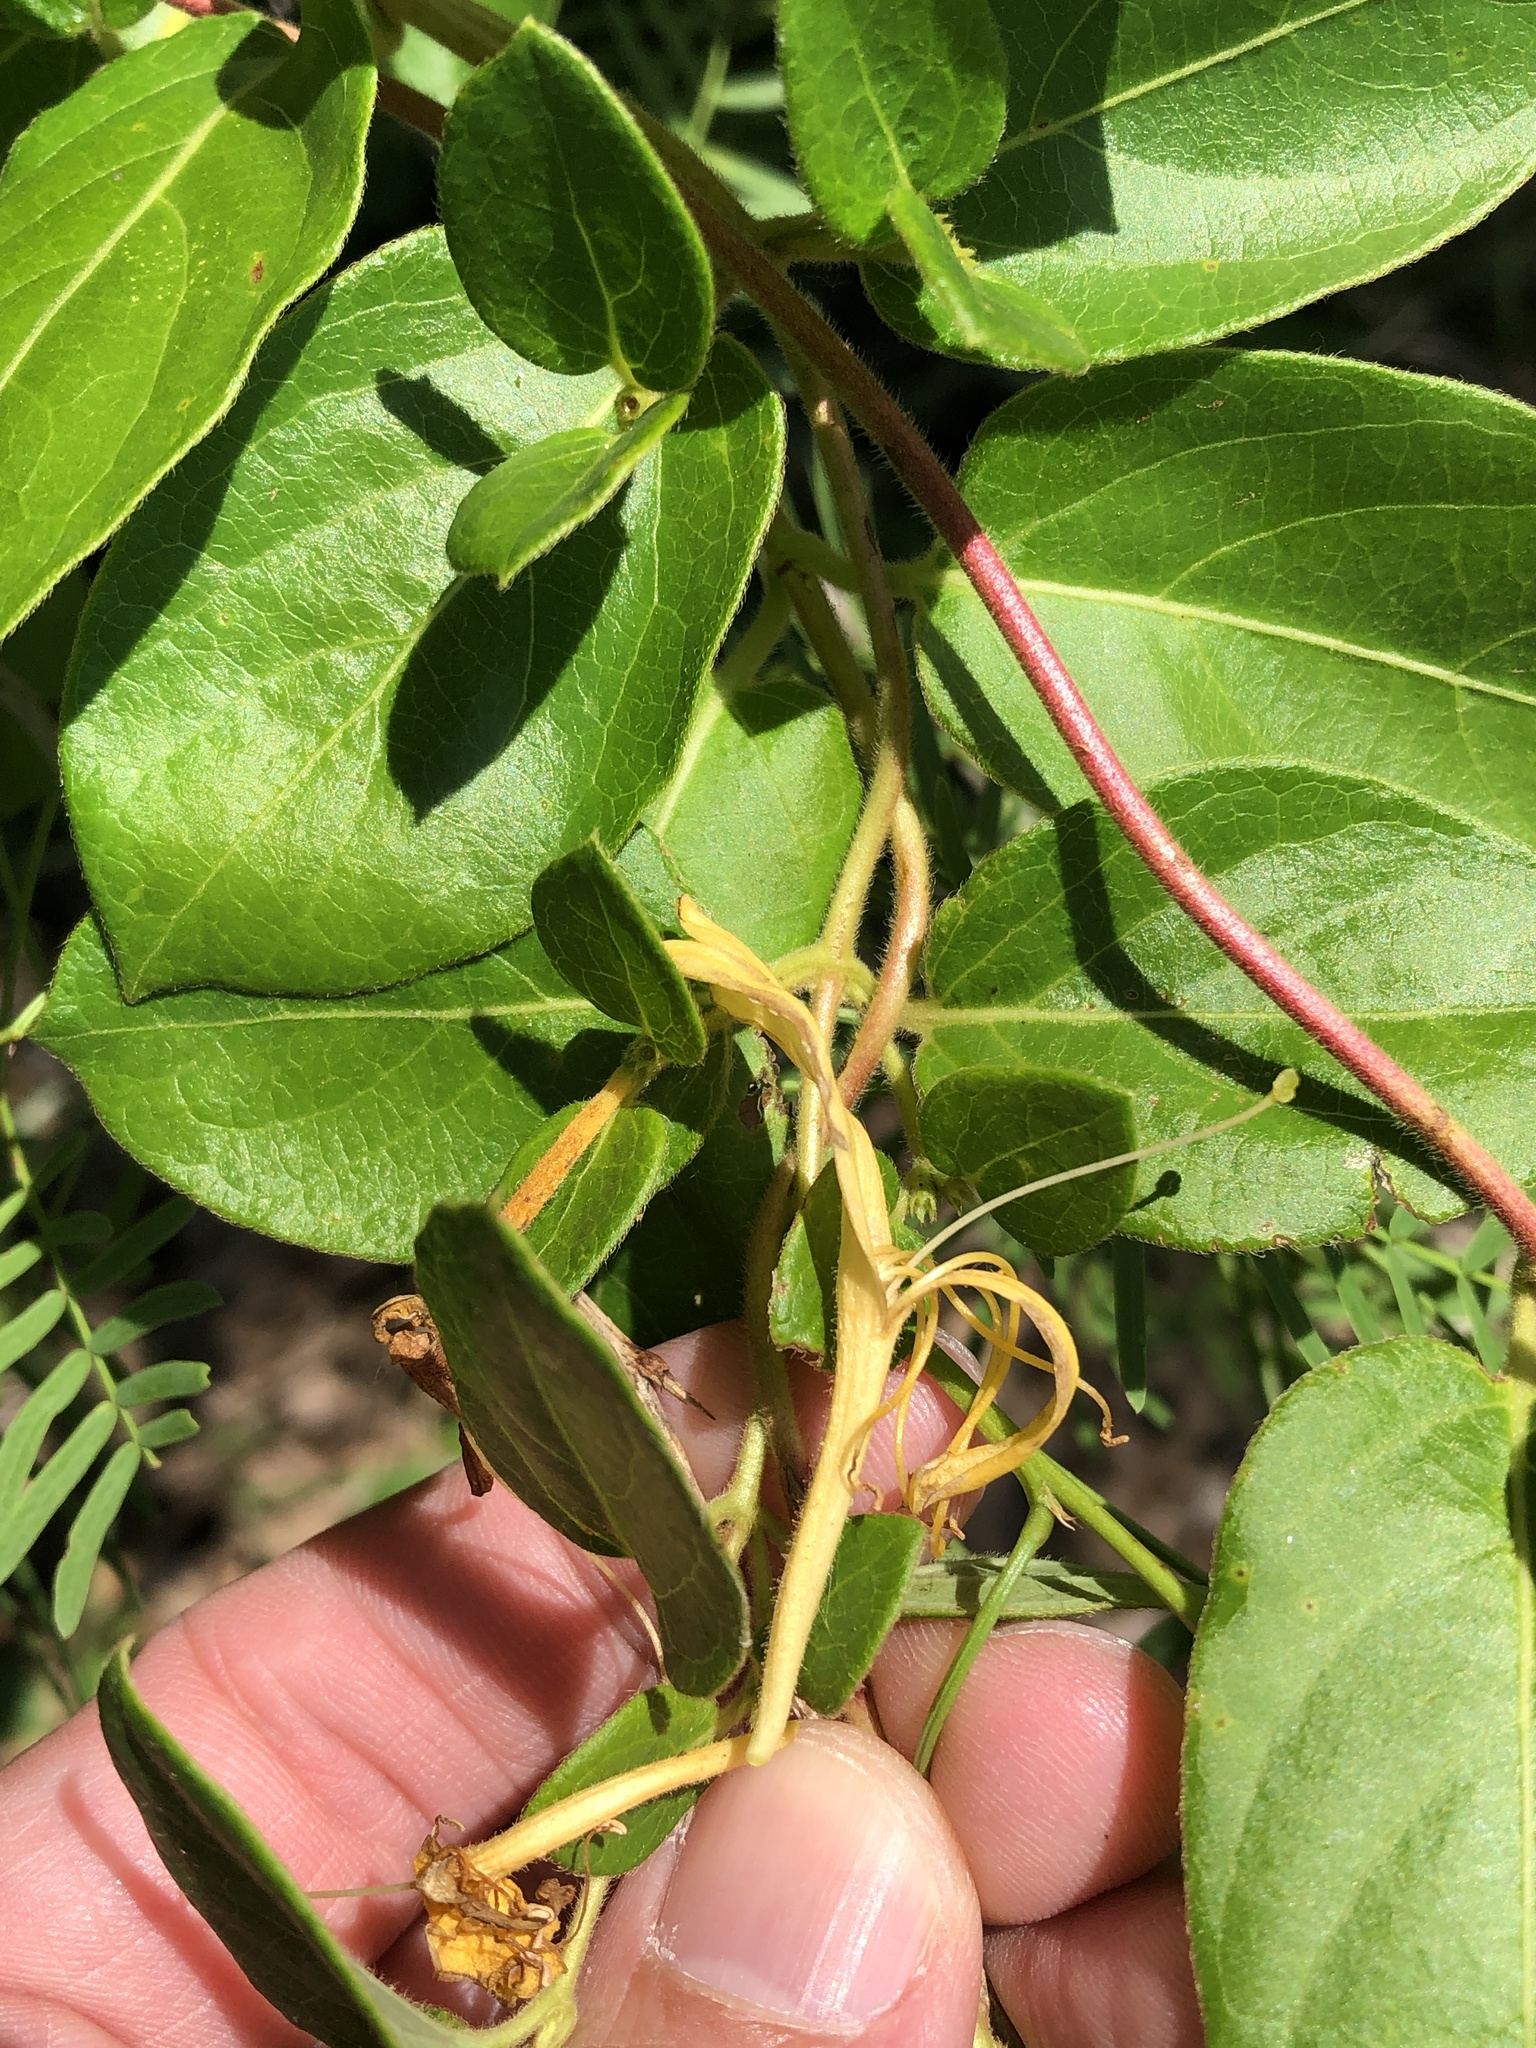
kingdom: Plantae
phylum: Tracheophyta
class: Magnoliopsida
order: Dipsacales
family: Caprifoliaceae
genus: Lonicera
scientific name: Lonicera japonica
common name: Japanese honeysuckle
